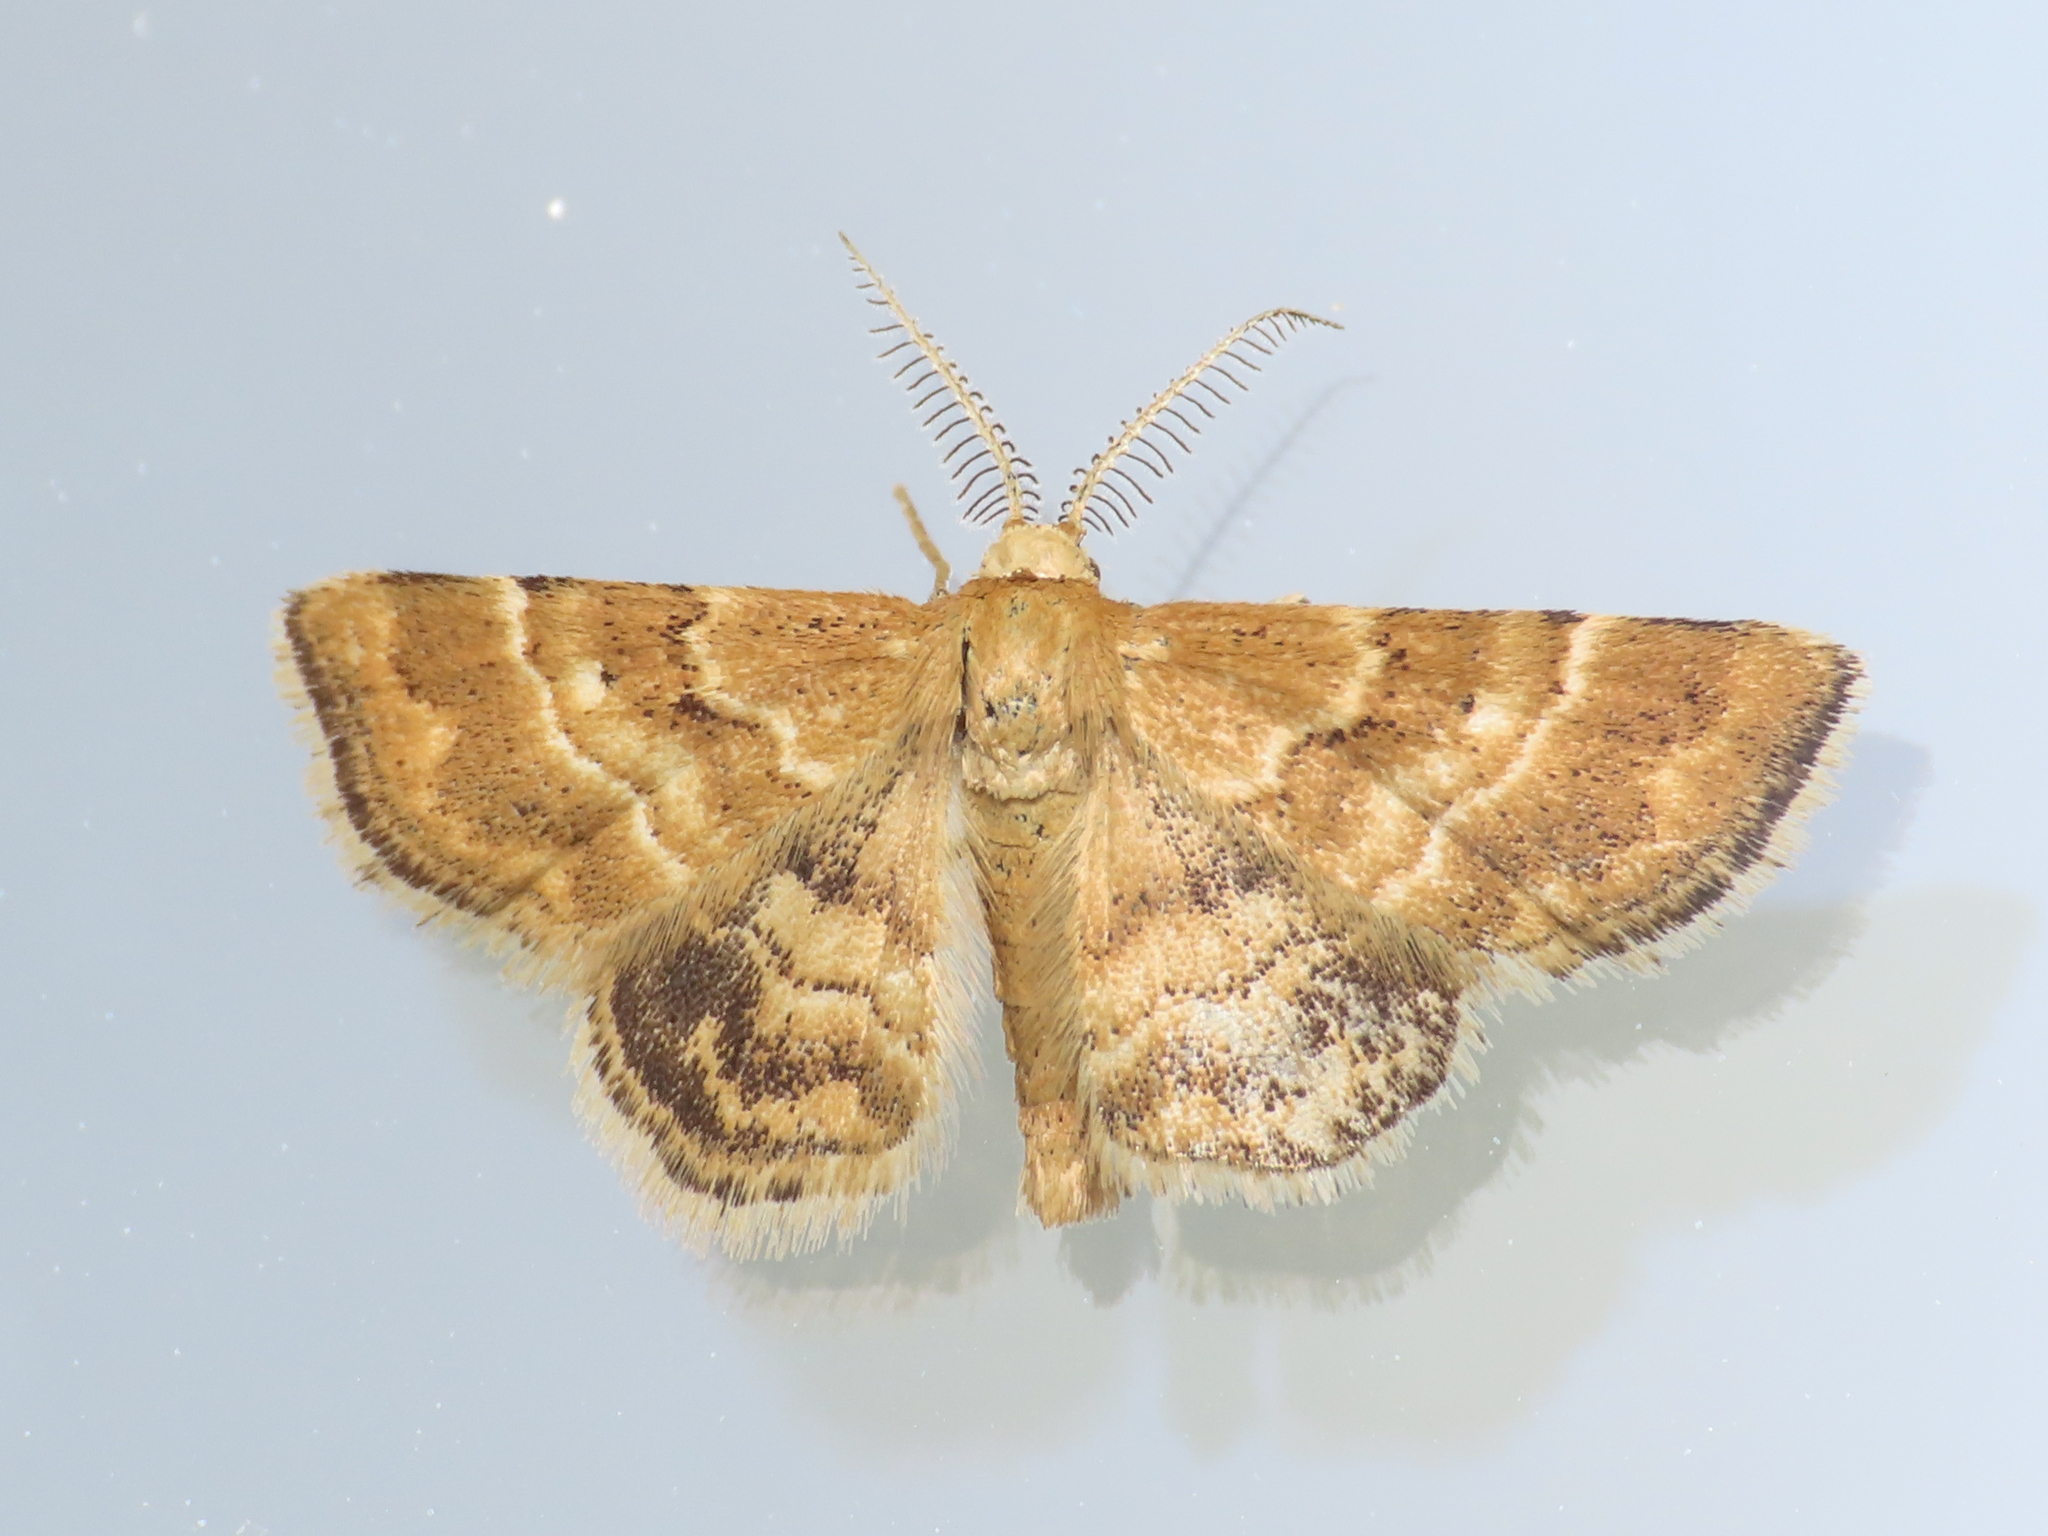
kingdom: Animalia
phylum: Arthropoda
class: Insecta
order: Lepidoptera
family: Geometridae
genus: Emmiltis
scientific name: Emmiltis pygmaearia
